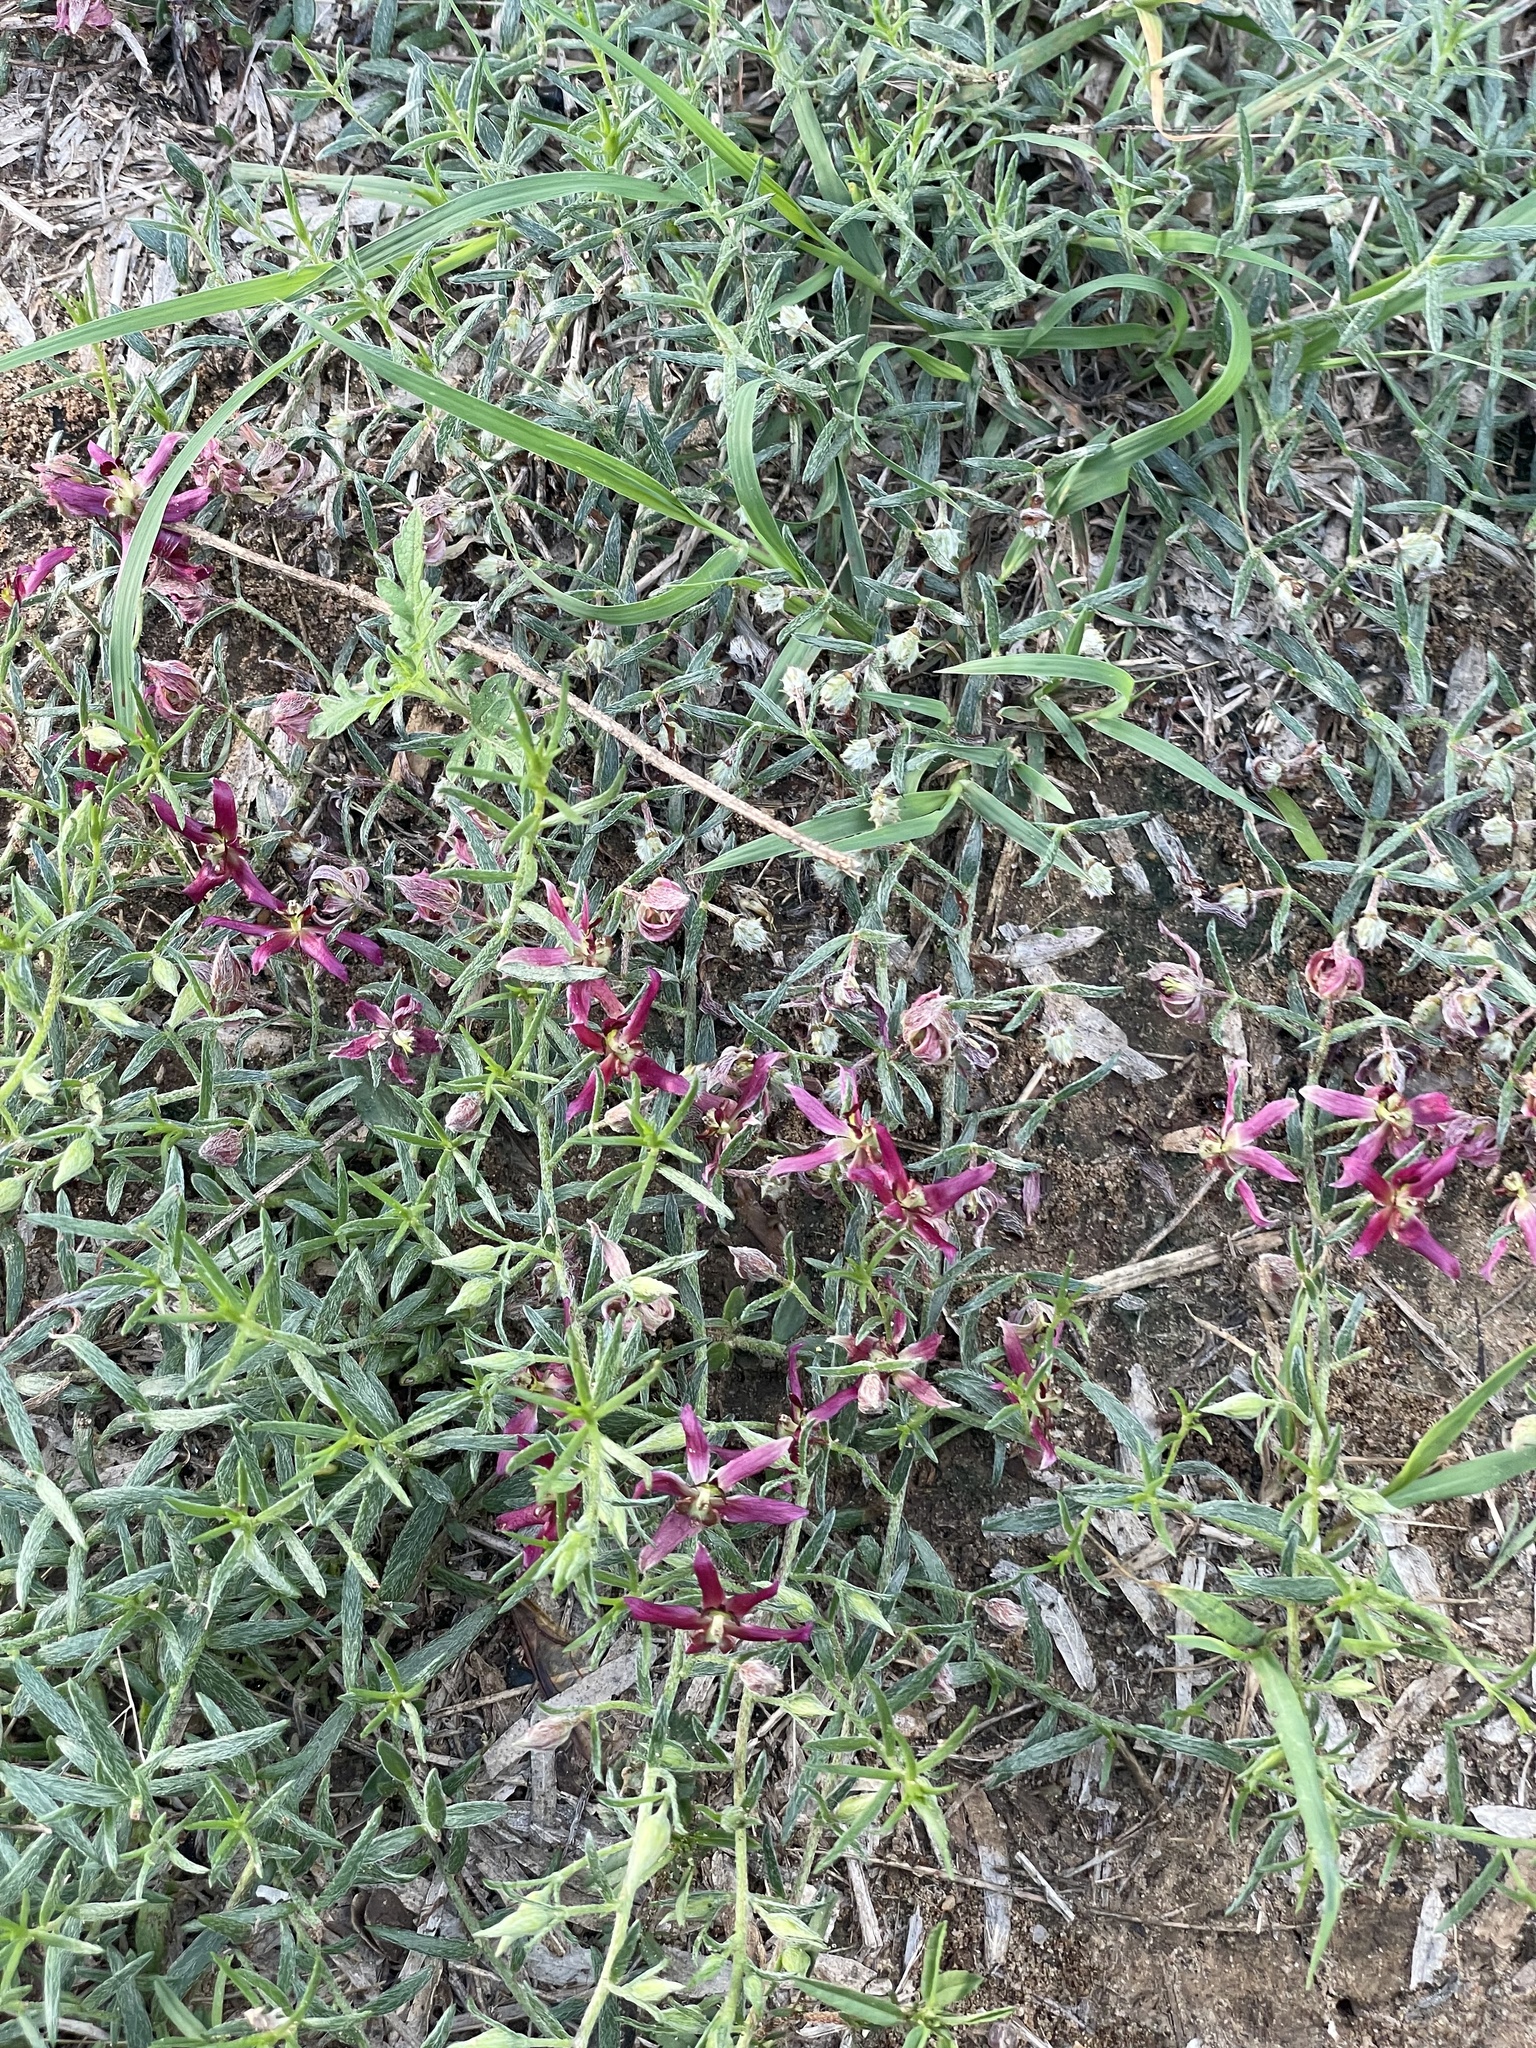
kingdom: Plantae
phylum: Tracheophyta
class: Magnoliopsida
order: Zygophyllales
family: Krameriaceae
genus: Krameria
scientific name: Krameria lanceolata
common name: Ratany
